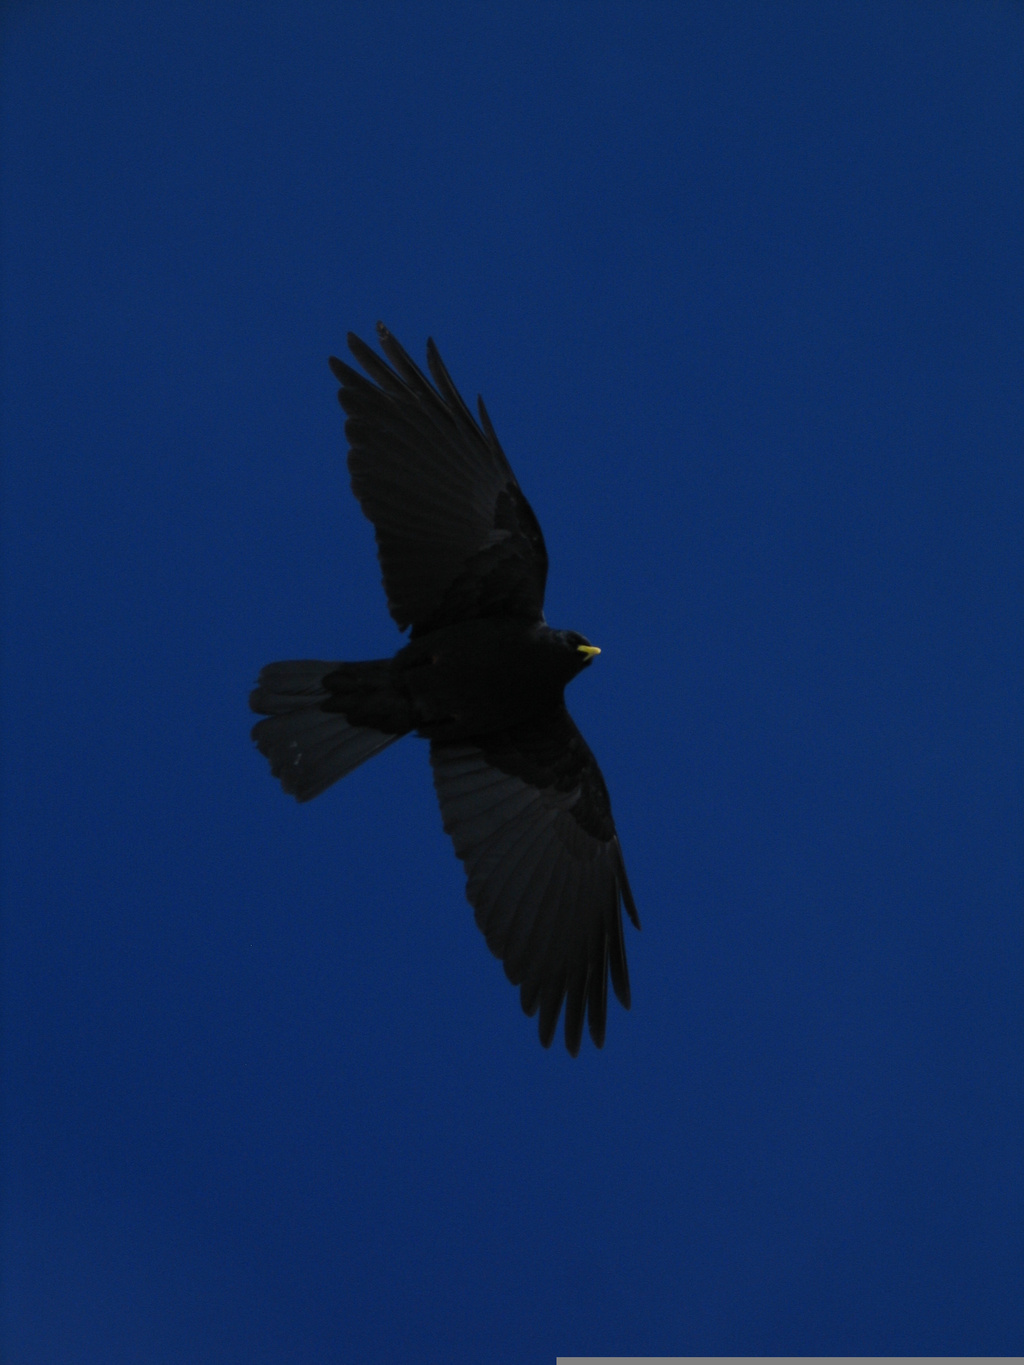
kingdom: Animalia
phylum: Chordata
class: Aves
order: Passeriformes
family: Corvidae
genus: Pyrrhocorax
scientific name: Pyrrhocorax graculus
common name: Alpine chough
